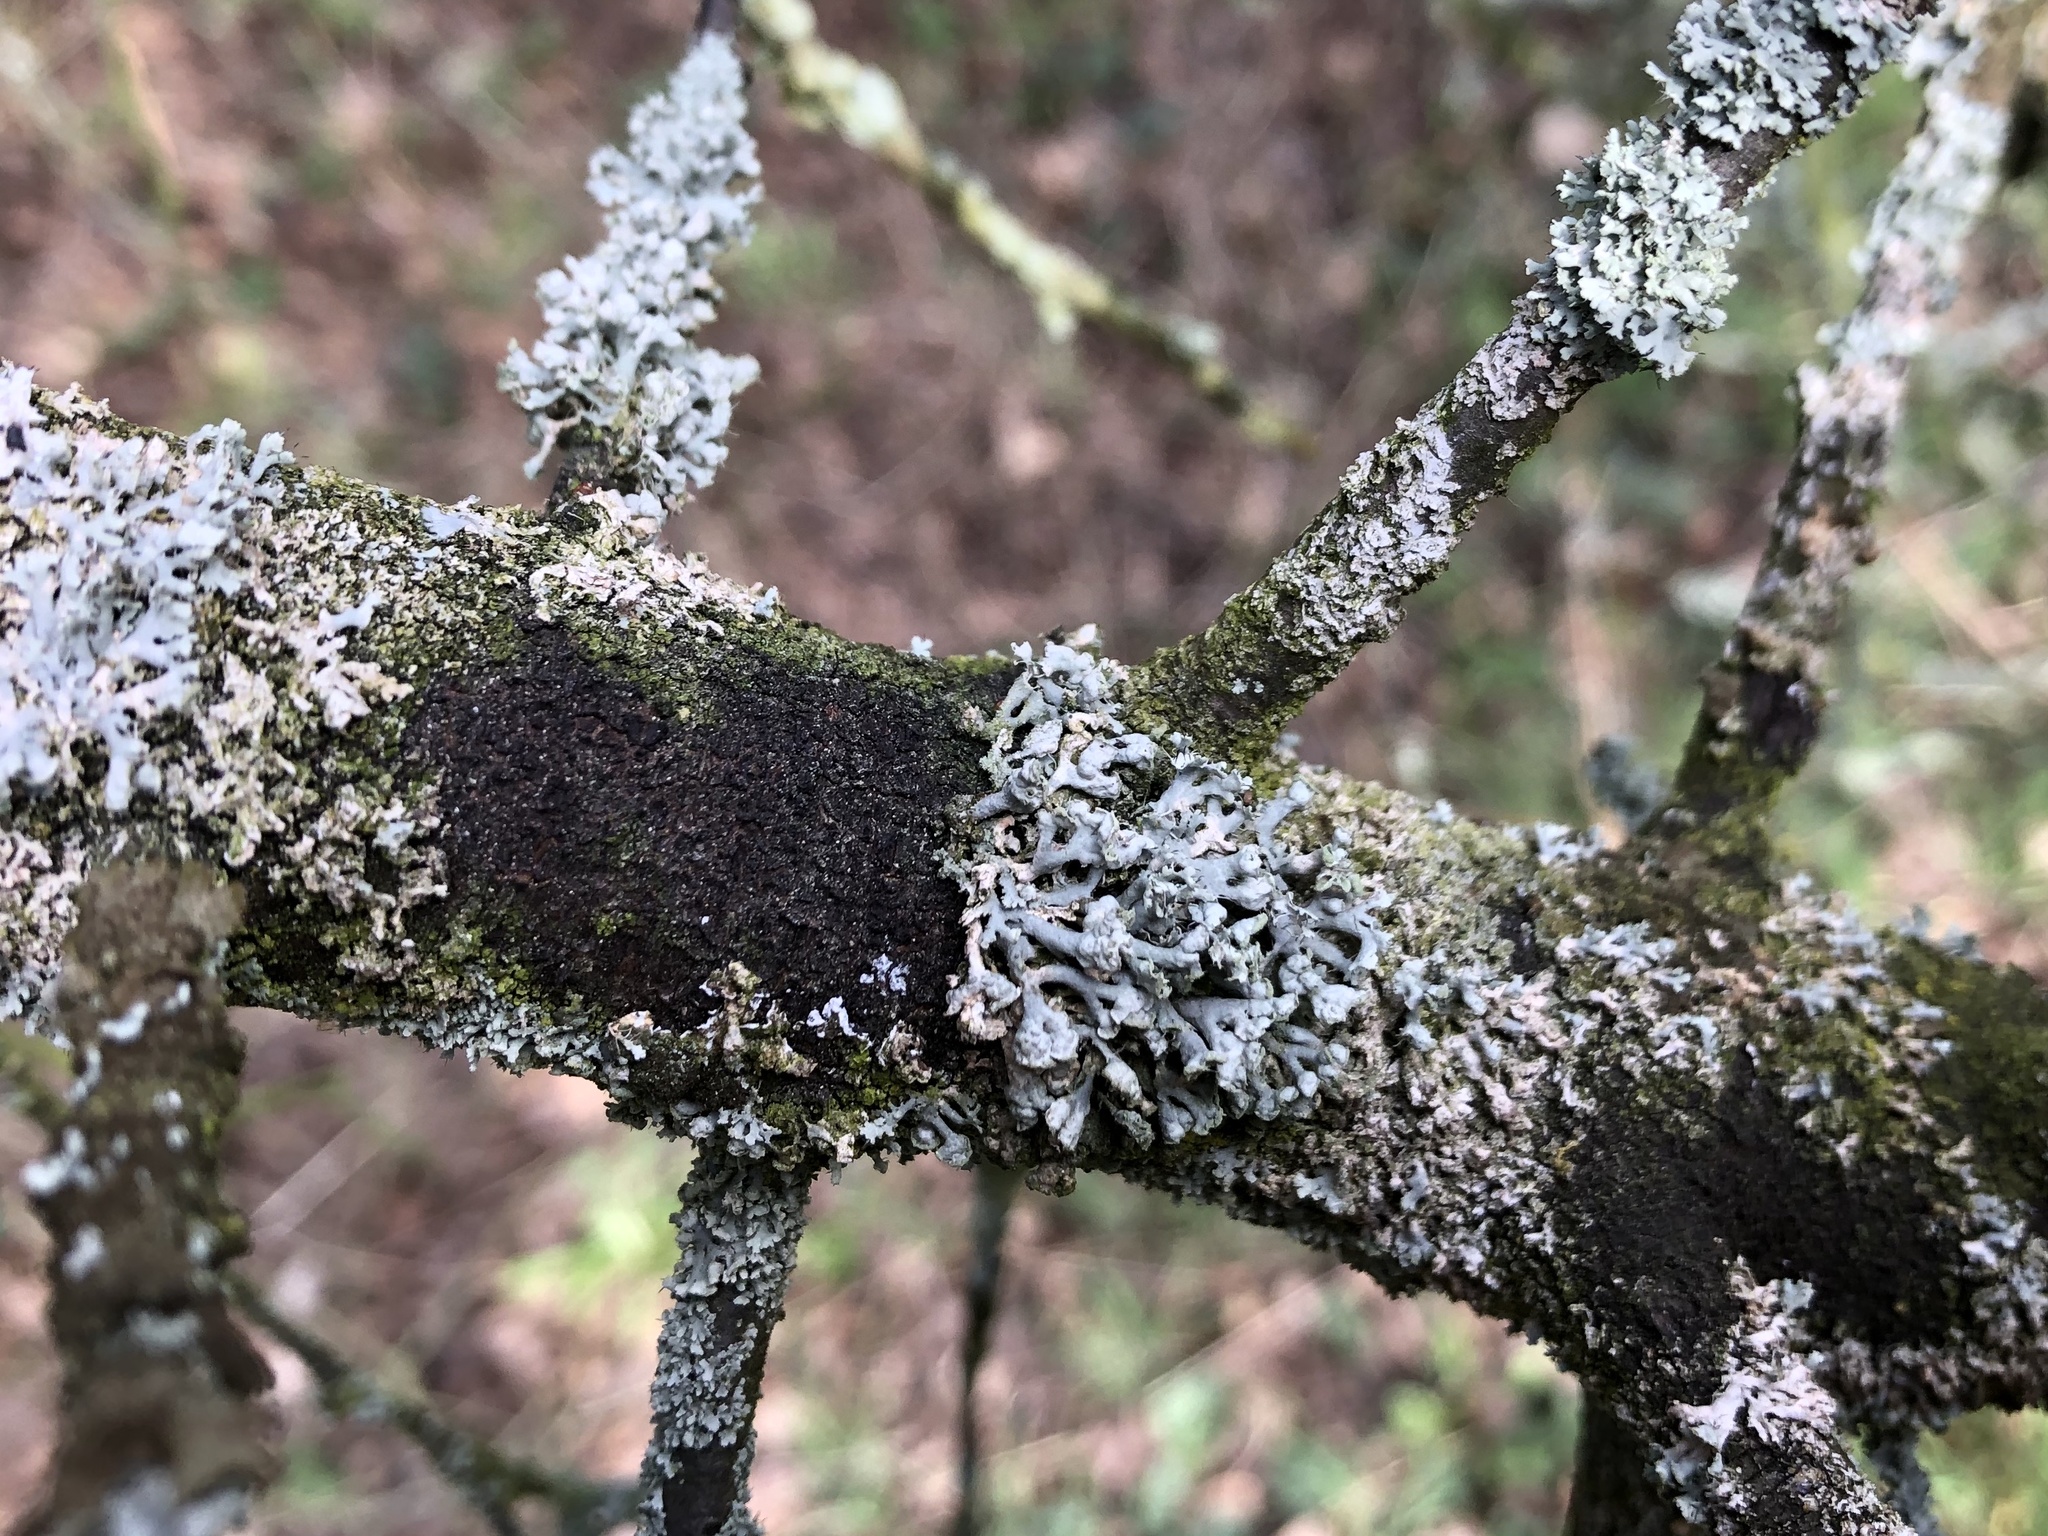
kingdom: Fungi
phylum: Ascomycota
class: Lecanoromycetes
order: Caliciales
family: Physciaceae
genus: Physcia
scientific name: Physcia adscendens
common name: Hooded rosette lichen
